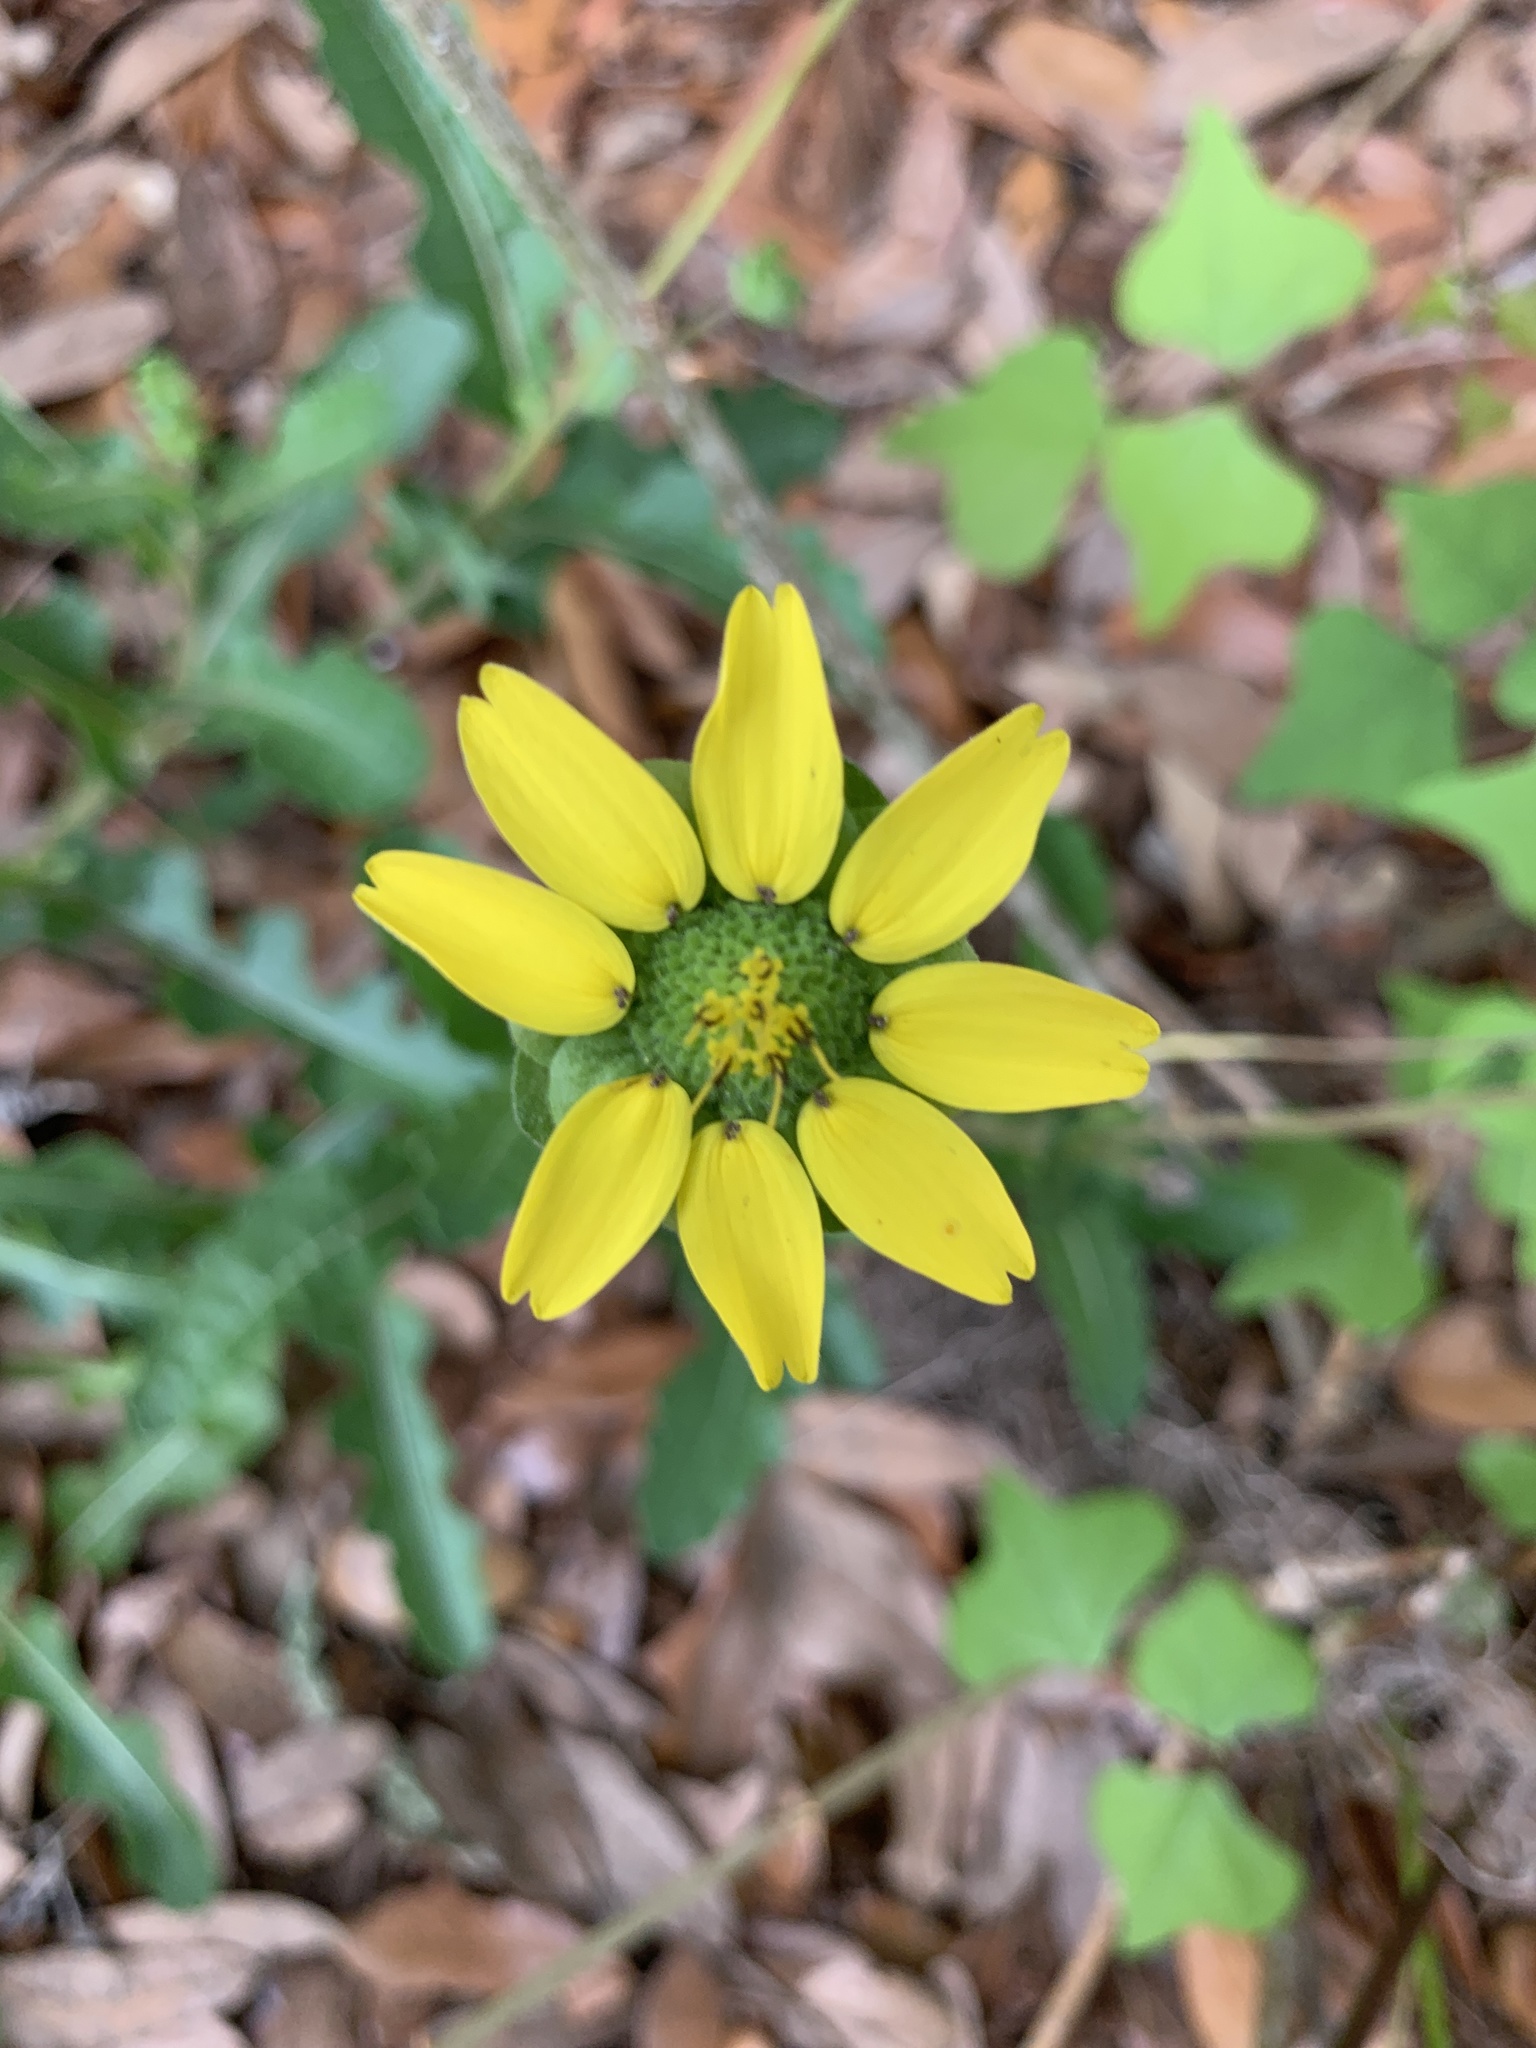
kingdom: Plantae
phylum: Tracheophyta
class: Magnoliopsida
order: Asterales
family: Asteraceae
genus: Berlandiera
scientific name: Berlandiera subacaulis
